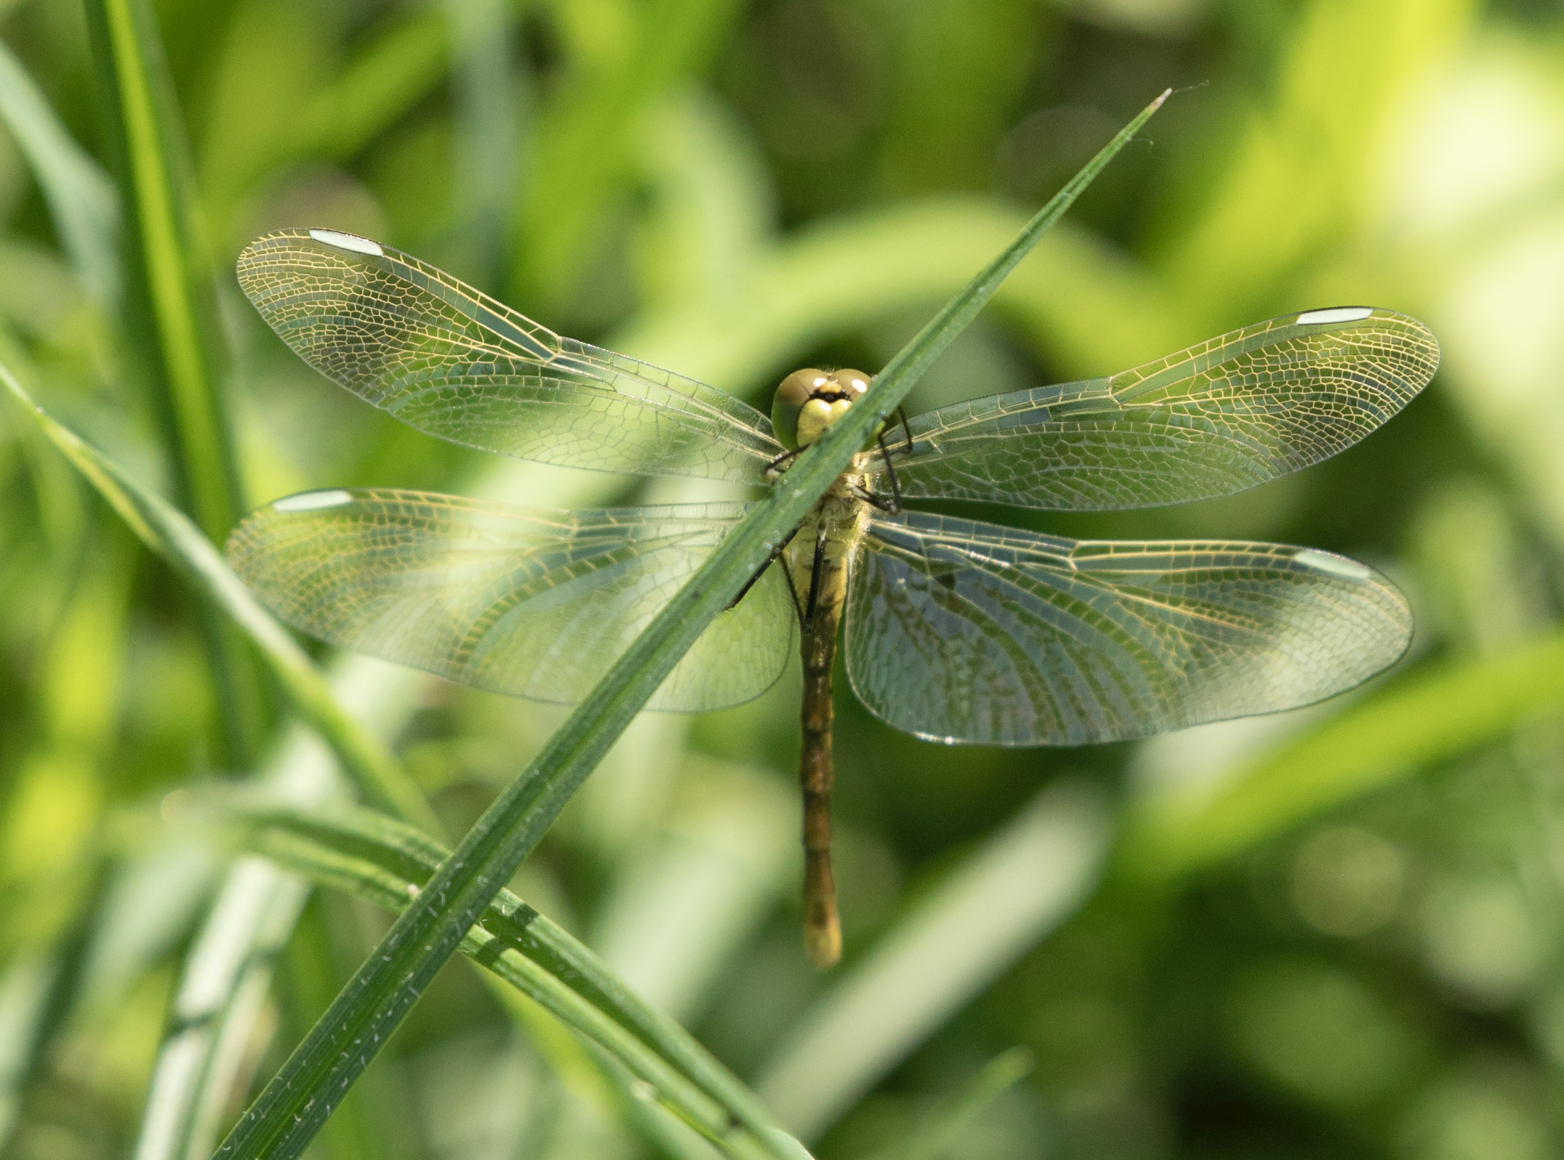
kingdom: Animalia
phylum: Arthropoda
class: Insecta
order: Odonata
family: Libellulidae
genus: Sympetrum
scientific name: Sympetrum pedemontanum
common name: Banded darter
